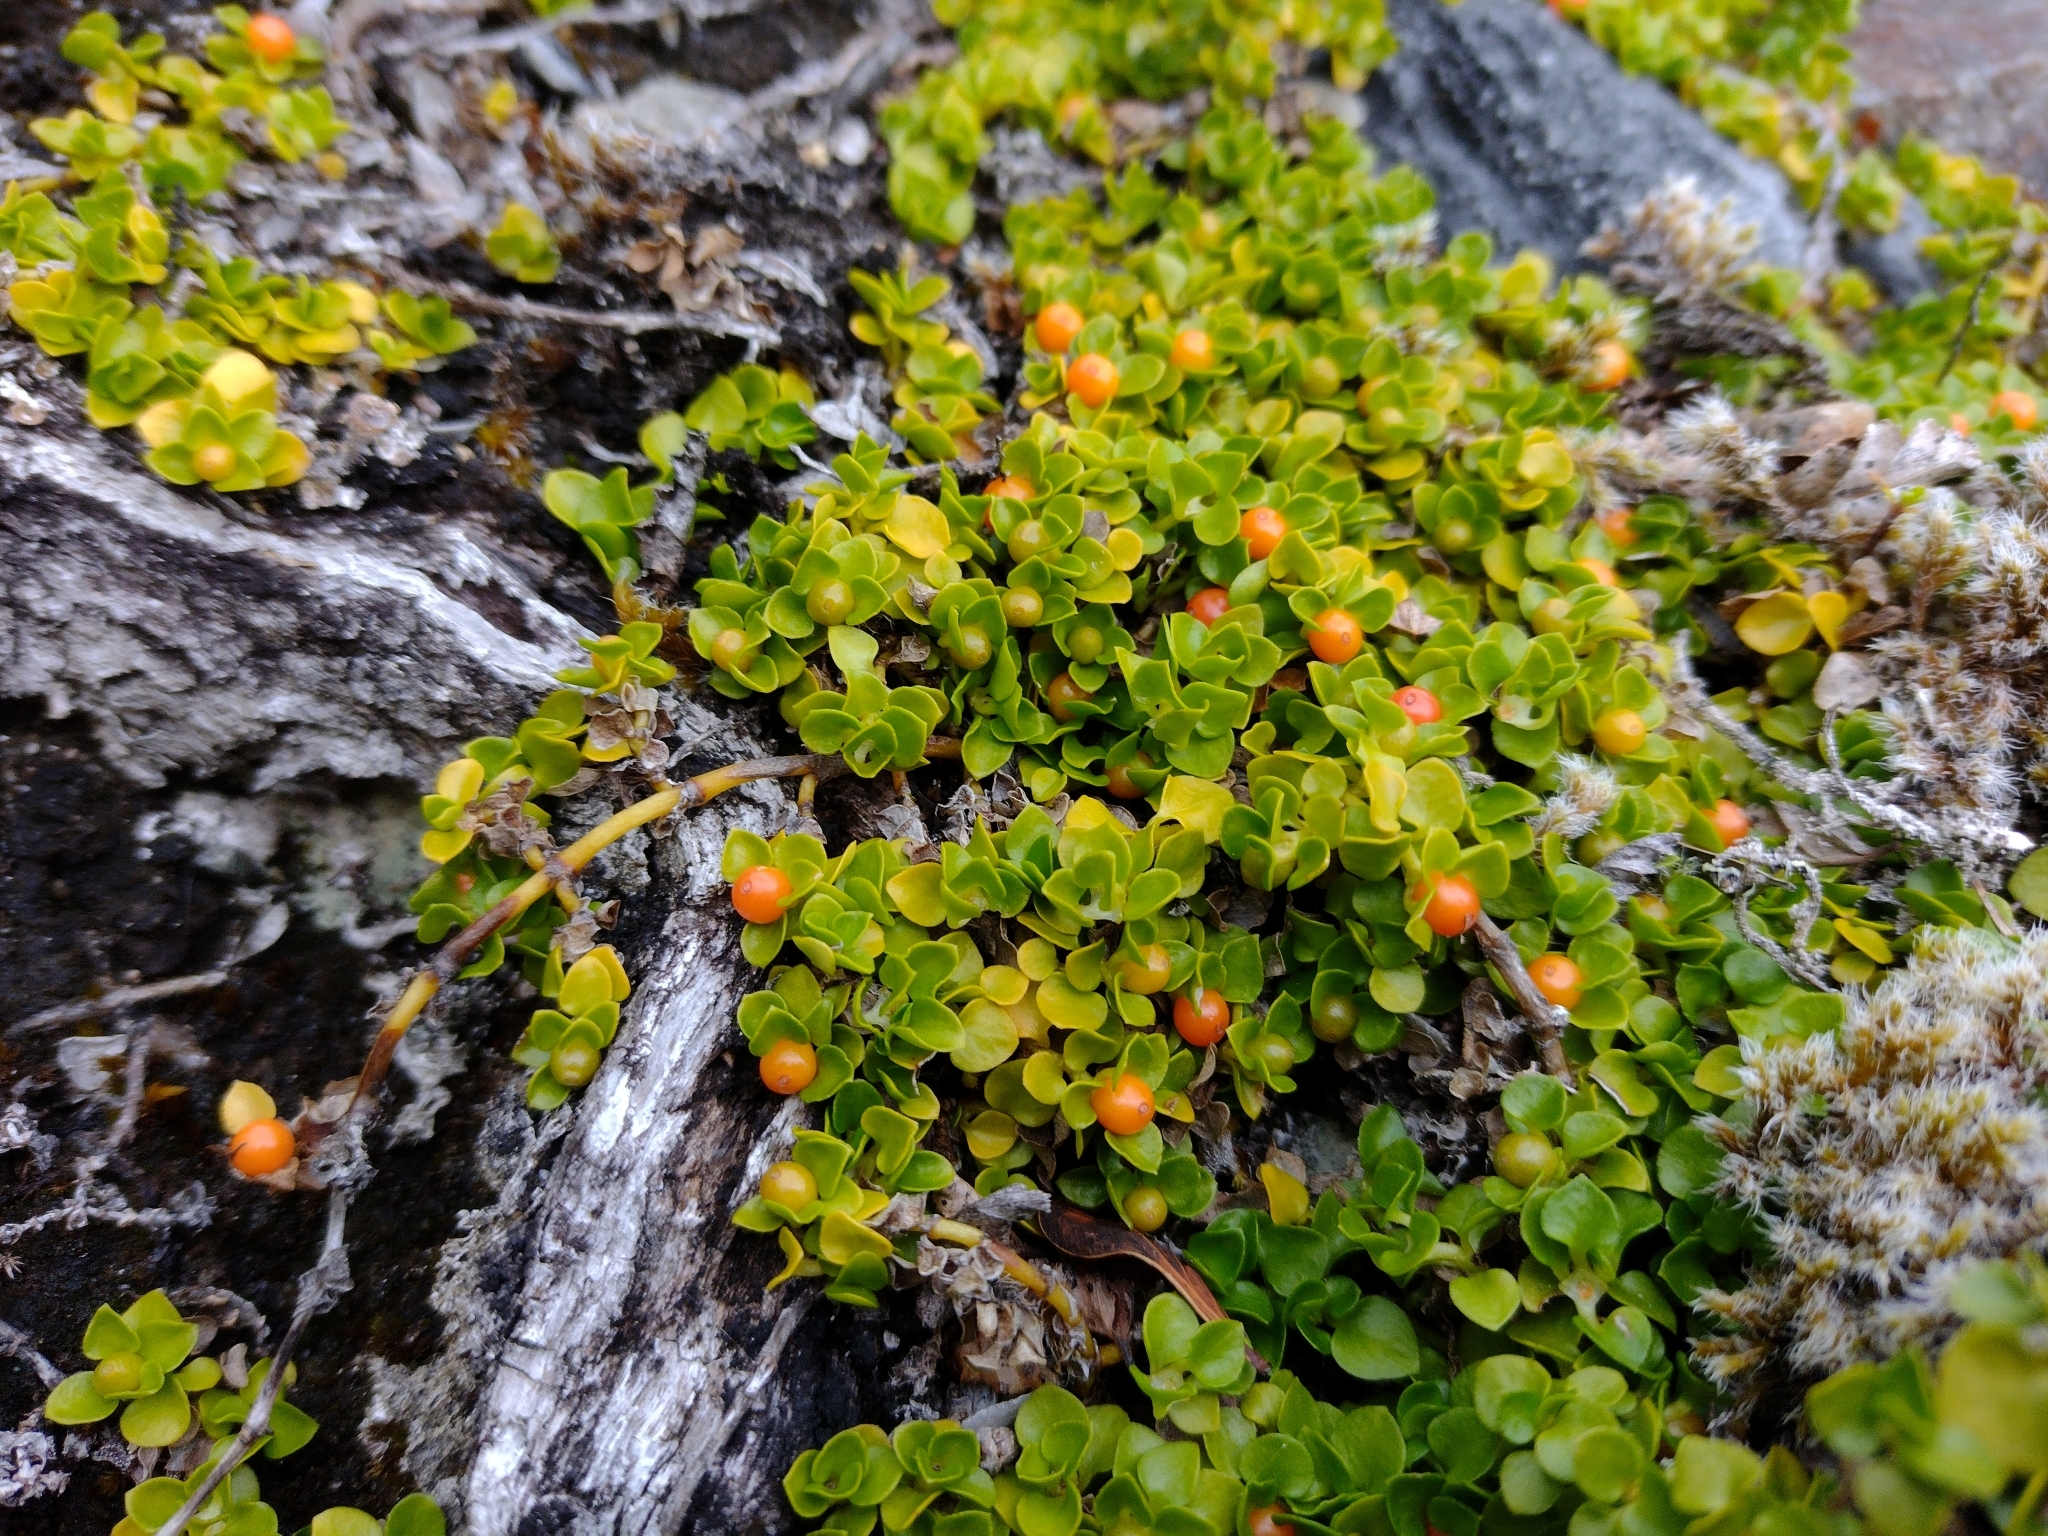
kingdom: Plantae
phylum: Tracheophyta
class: Magnoliopsida
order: Gentianales
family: Rubiaceae
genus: Nertera
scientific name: Nertera granadensis
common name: Beadplant
